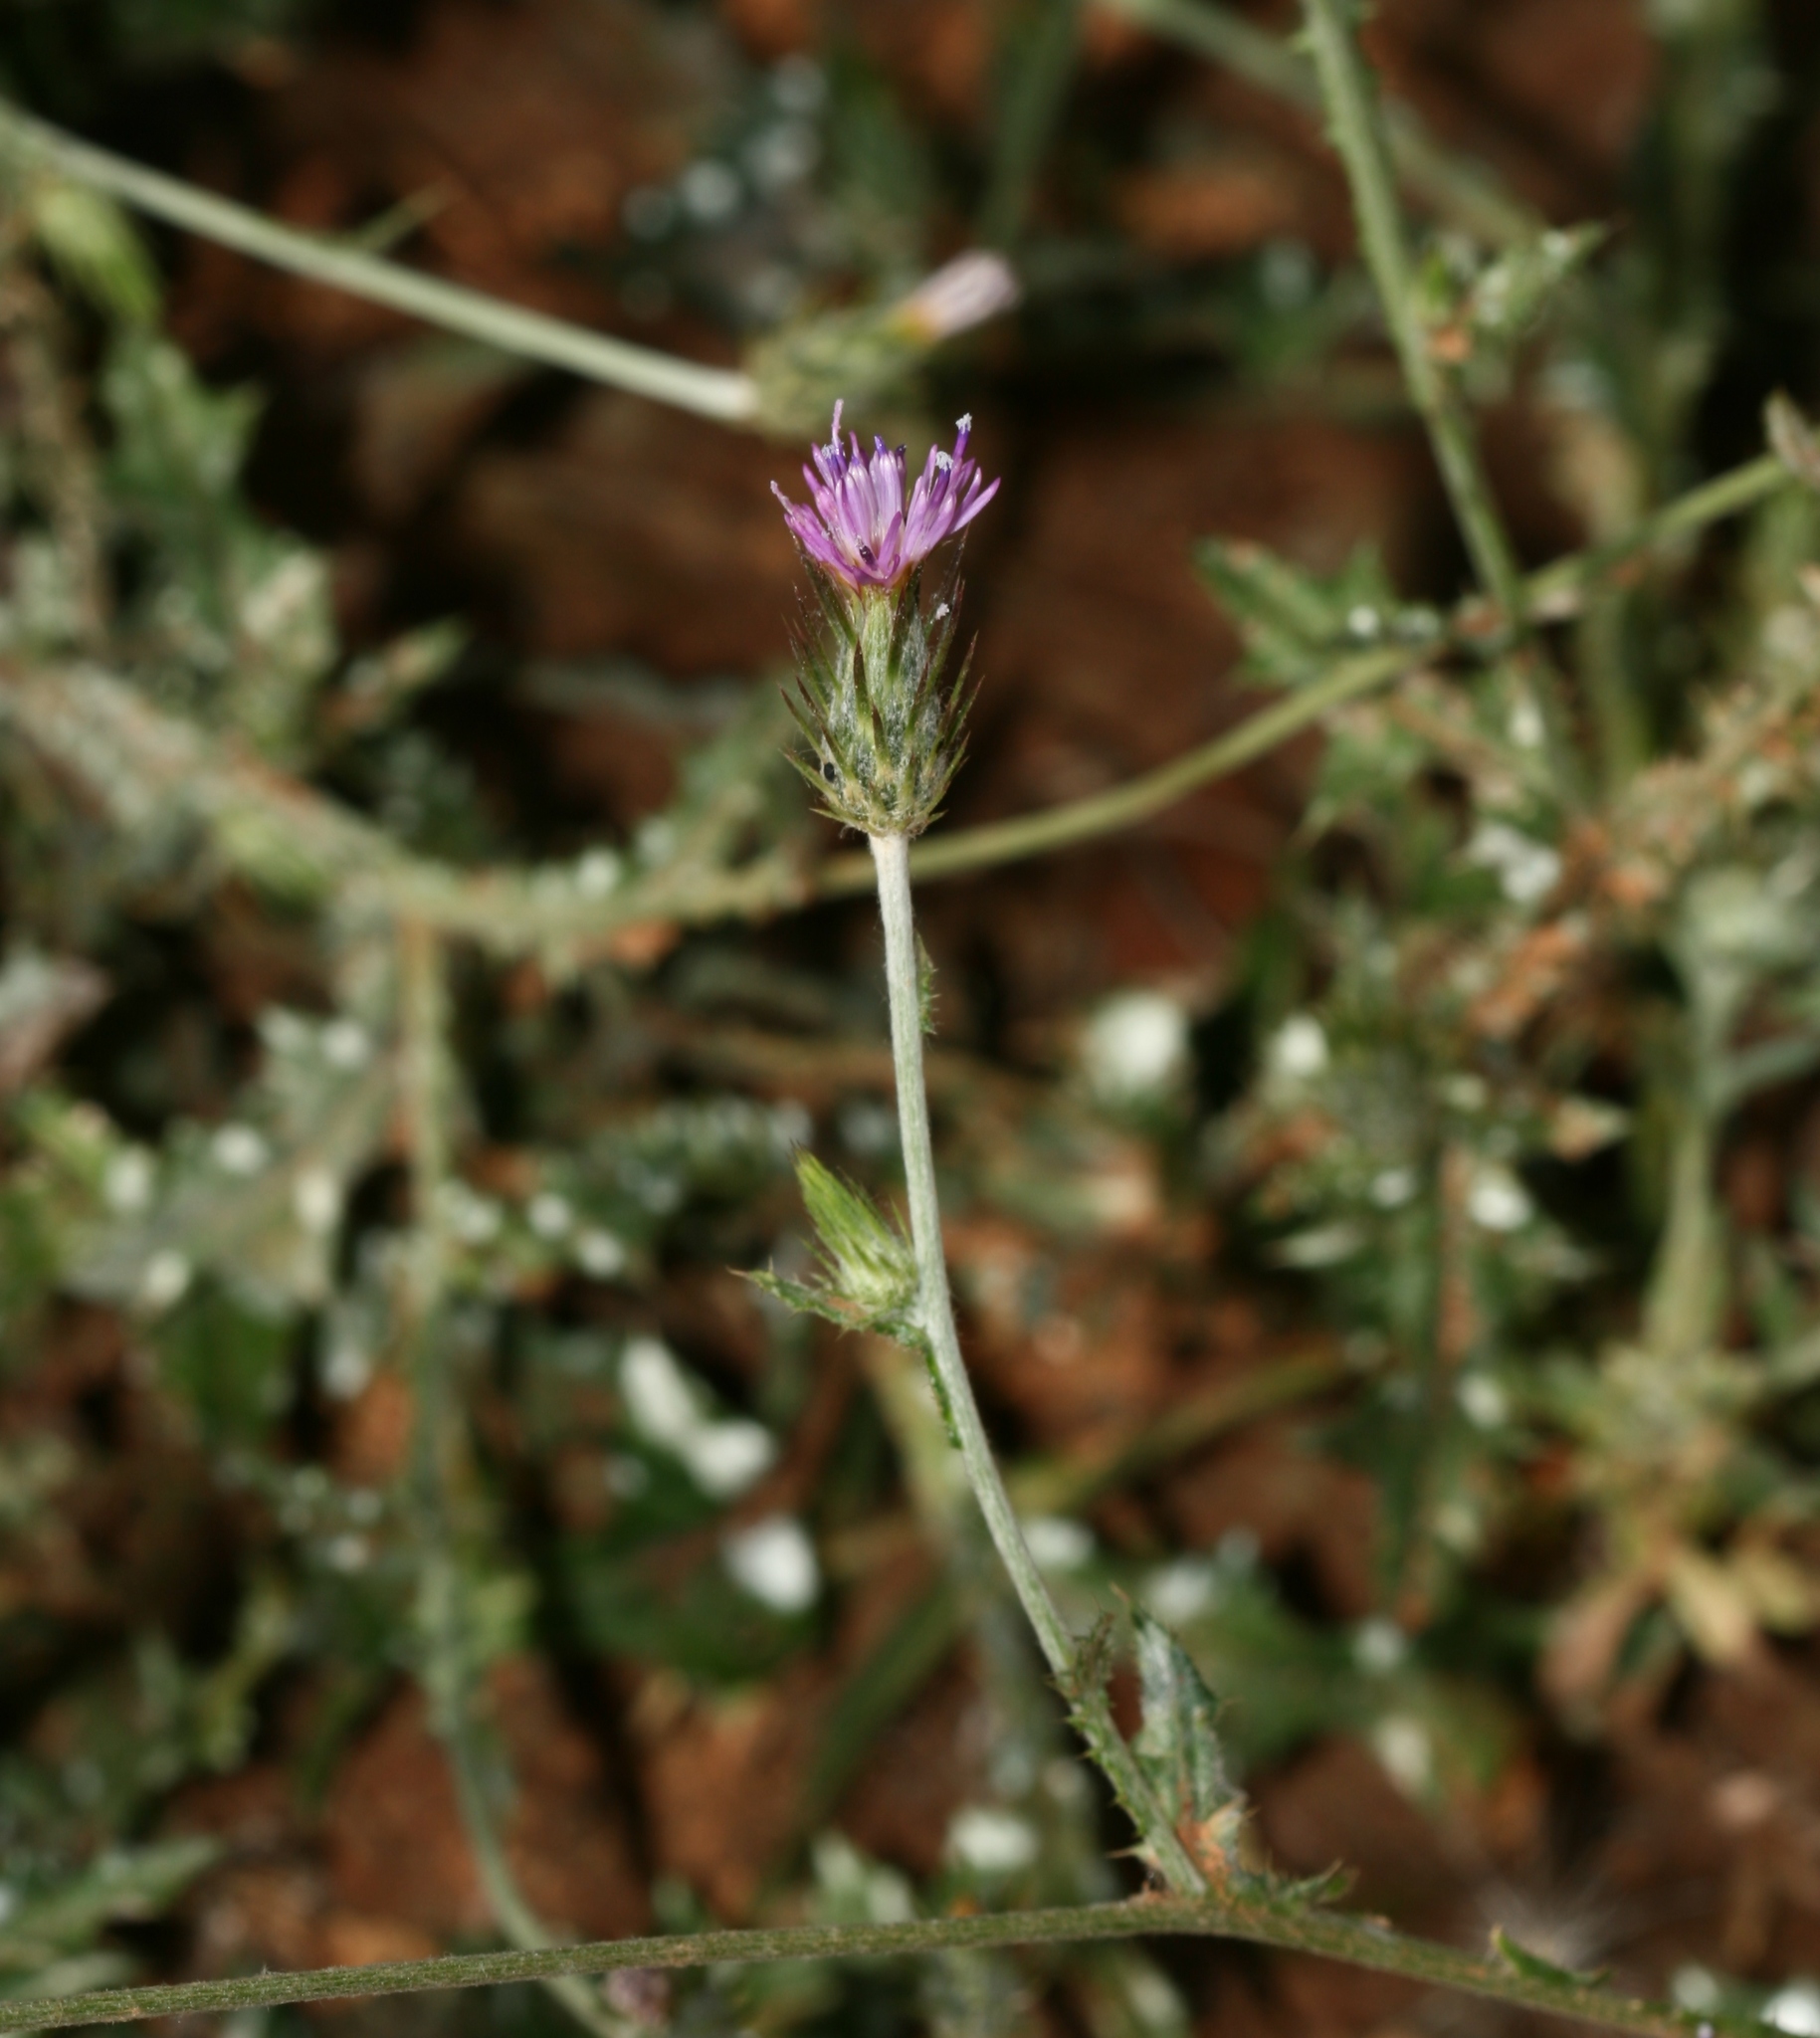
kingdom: Plantae
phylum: Tracheophyta
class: Magnoliopsida
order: Asterales
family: Asteraceae
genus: Carduus
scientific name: Carduus pycnocephalus
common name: Plymouth thistle
